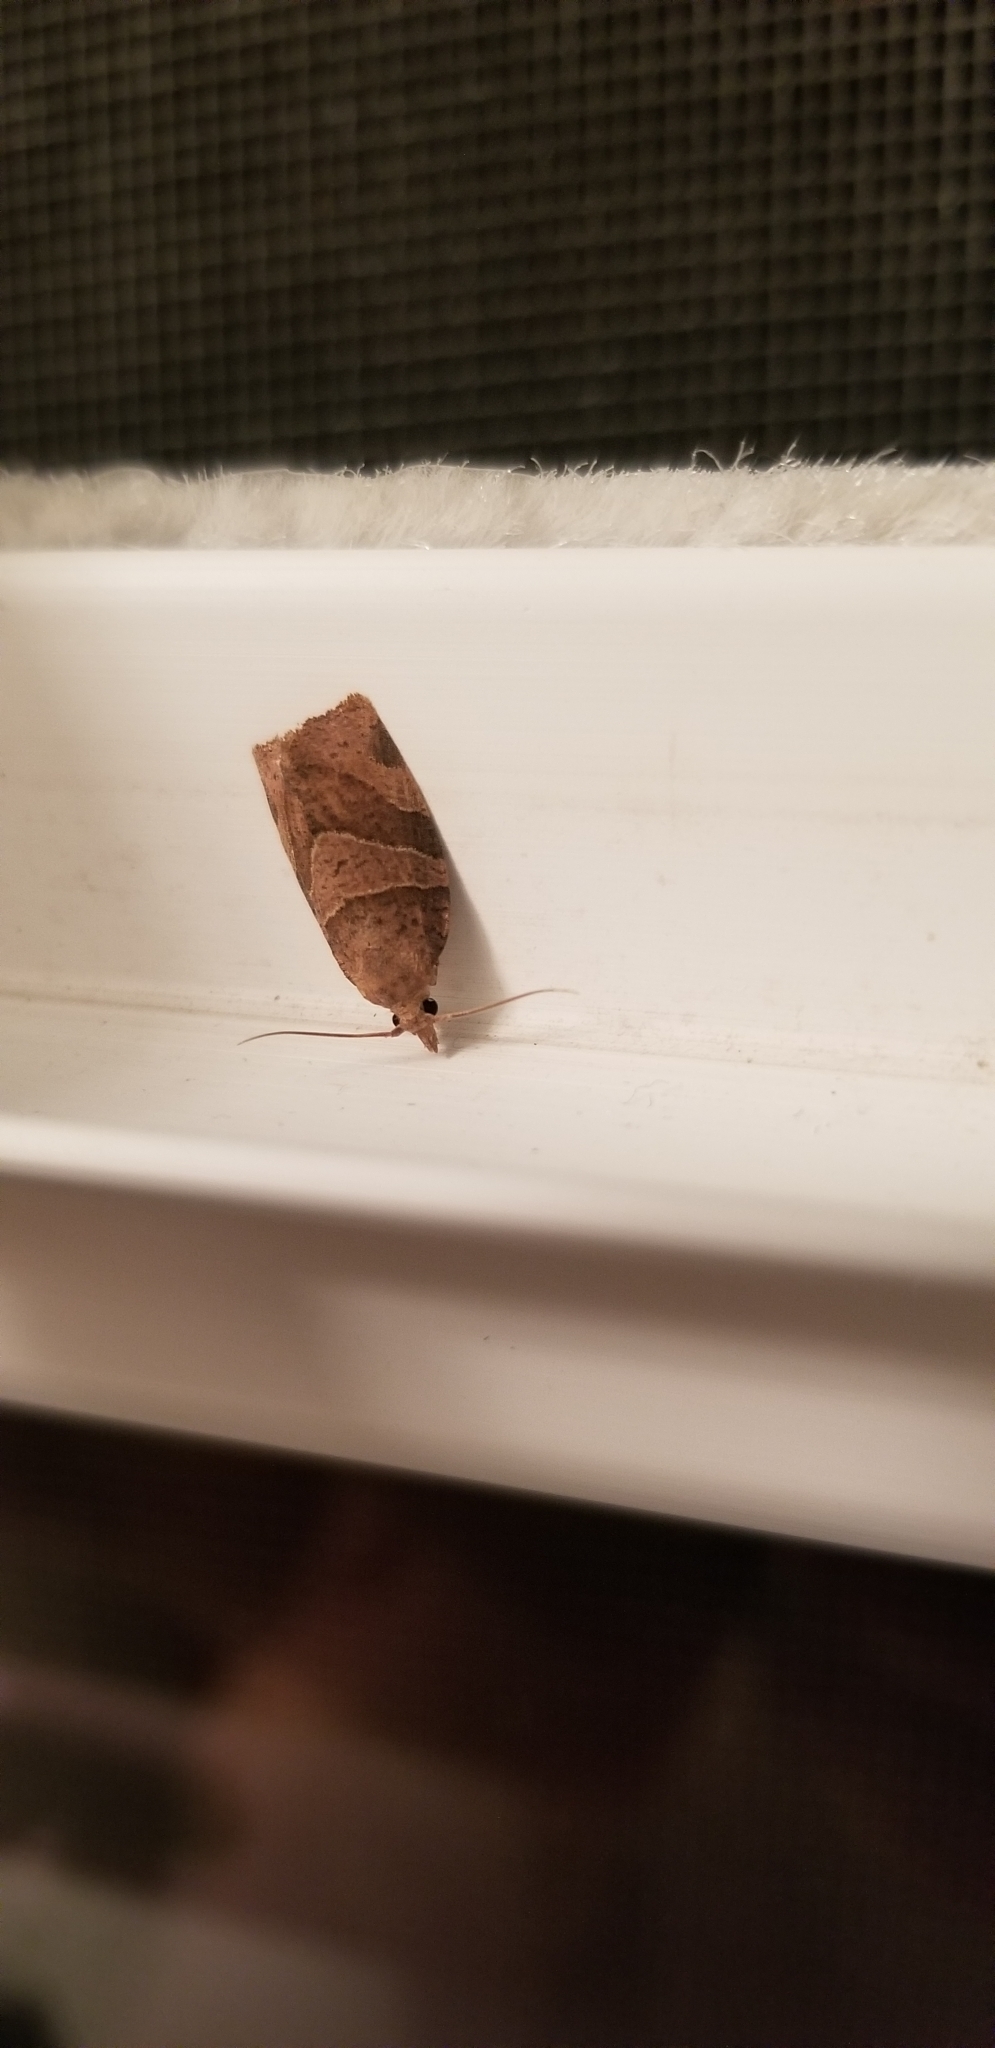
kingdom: Animalia
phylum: Arthropoda
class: Insecta
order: Lepidoptera
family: Tortricidae
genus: Pandemis
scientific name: Pandemis lamprosana
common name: Woodgrain leafroller moth
